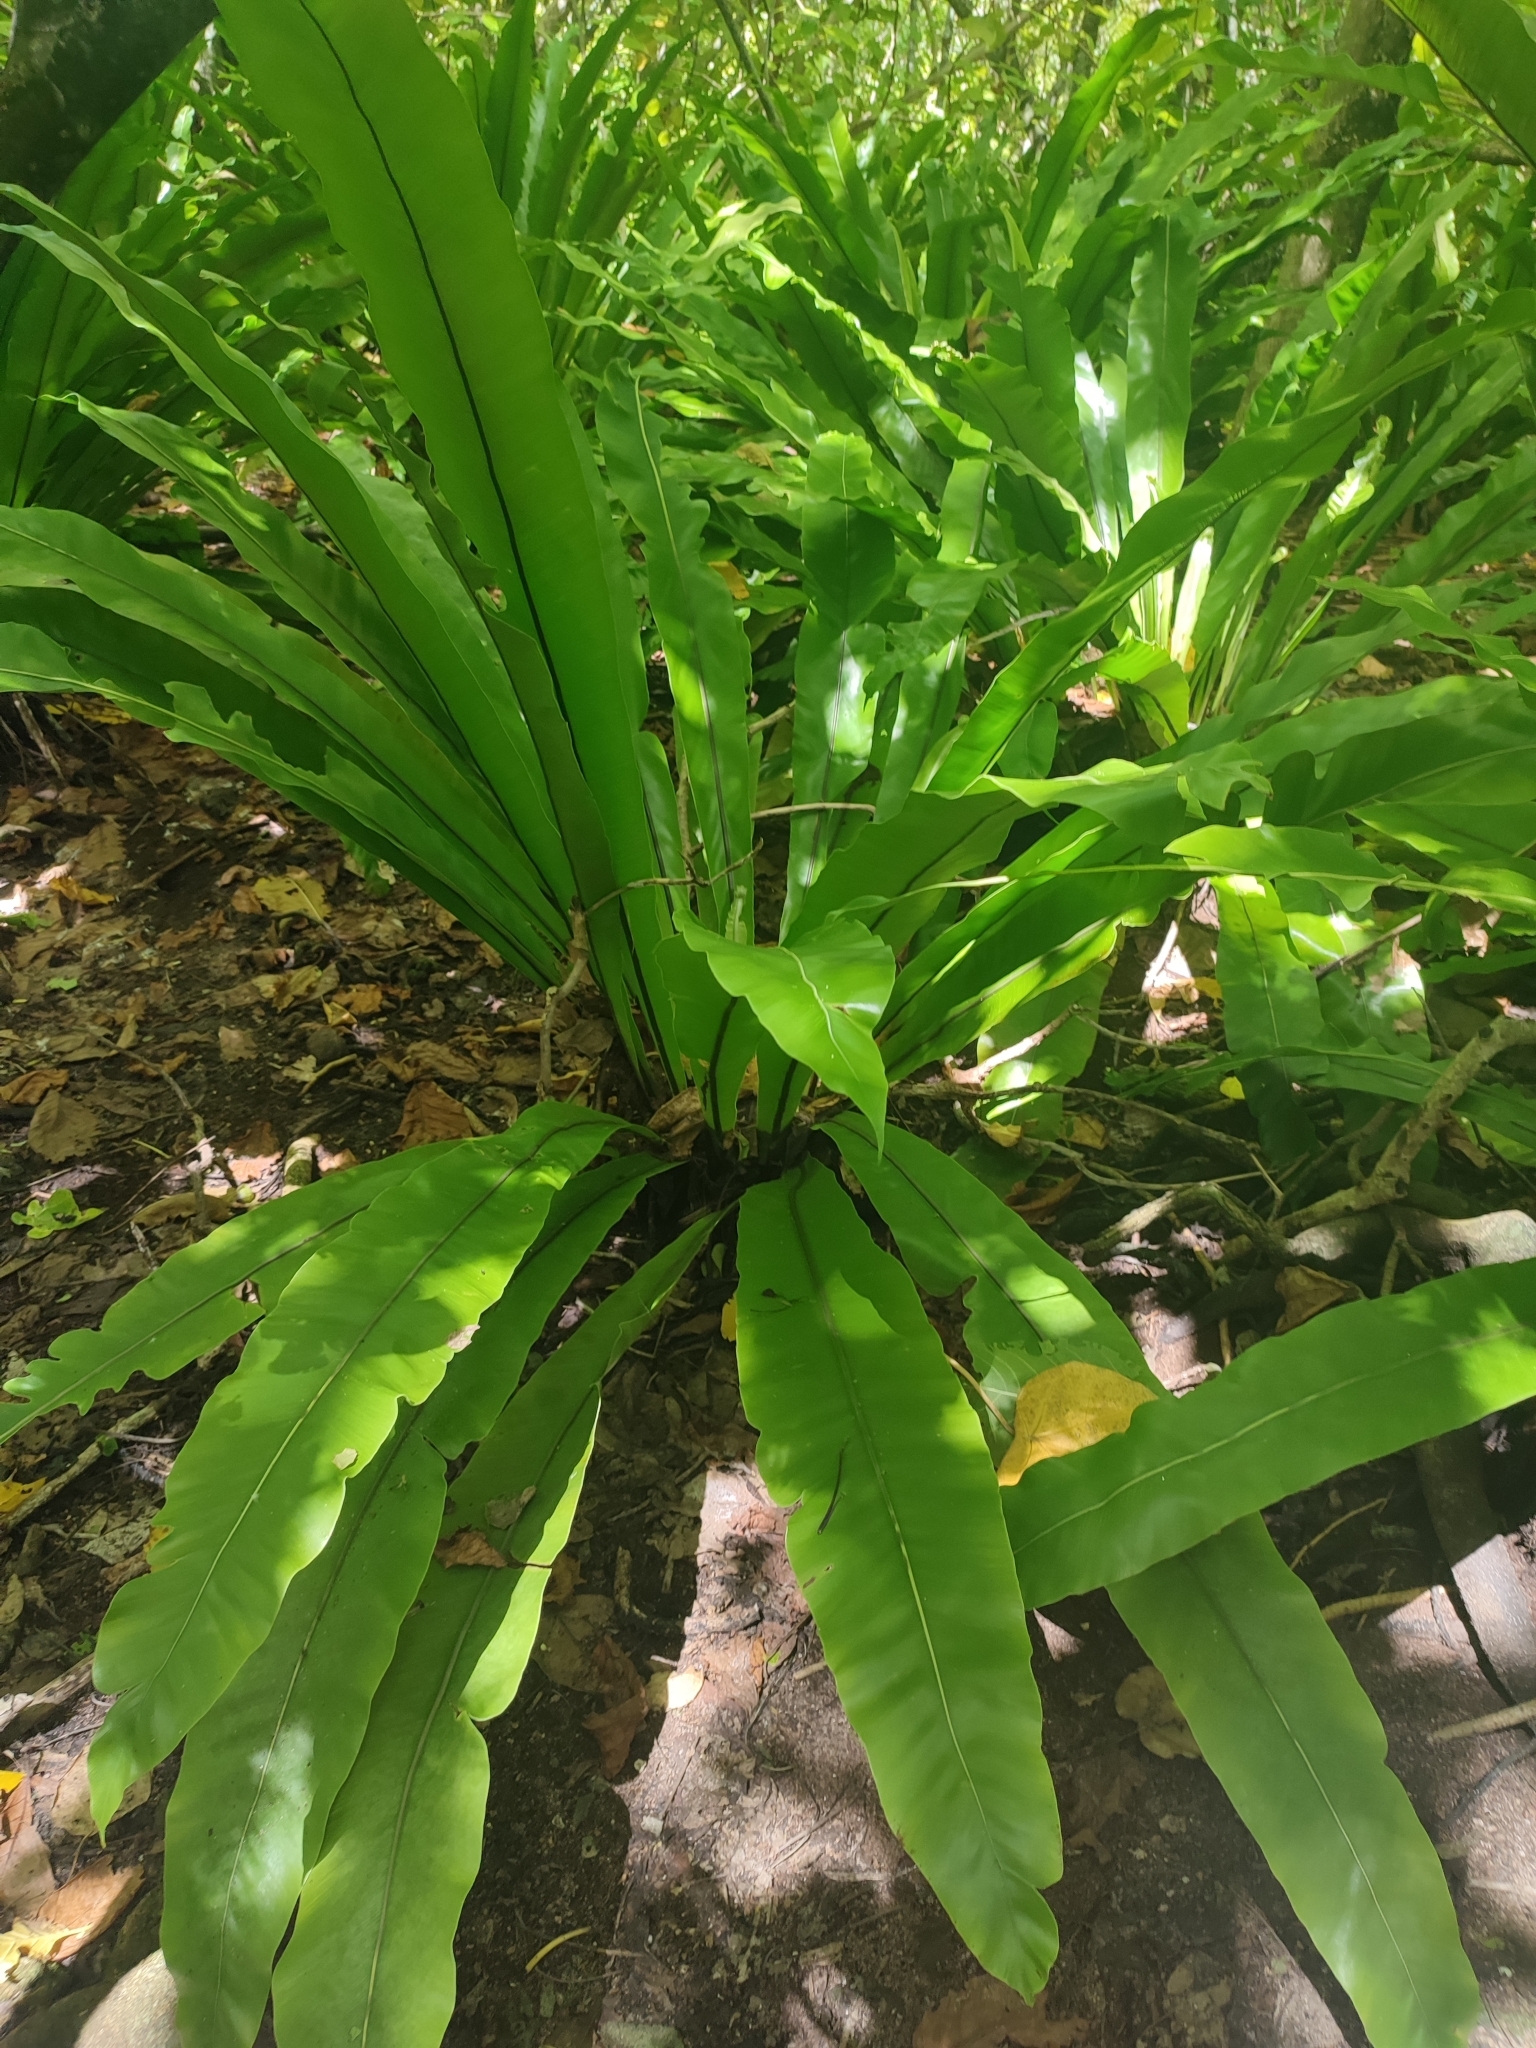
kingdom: Plantae
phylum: Tracheophyta
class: Polypodiopsida
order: Polypodiales
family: Aspleniaceae
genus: Asplenium
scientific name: Asplenium nidus
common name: Bird's-nest fern
